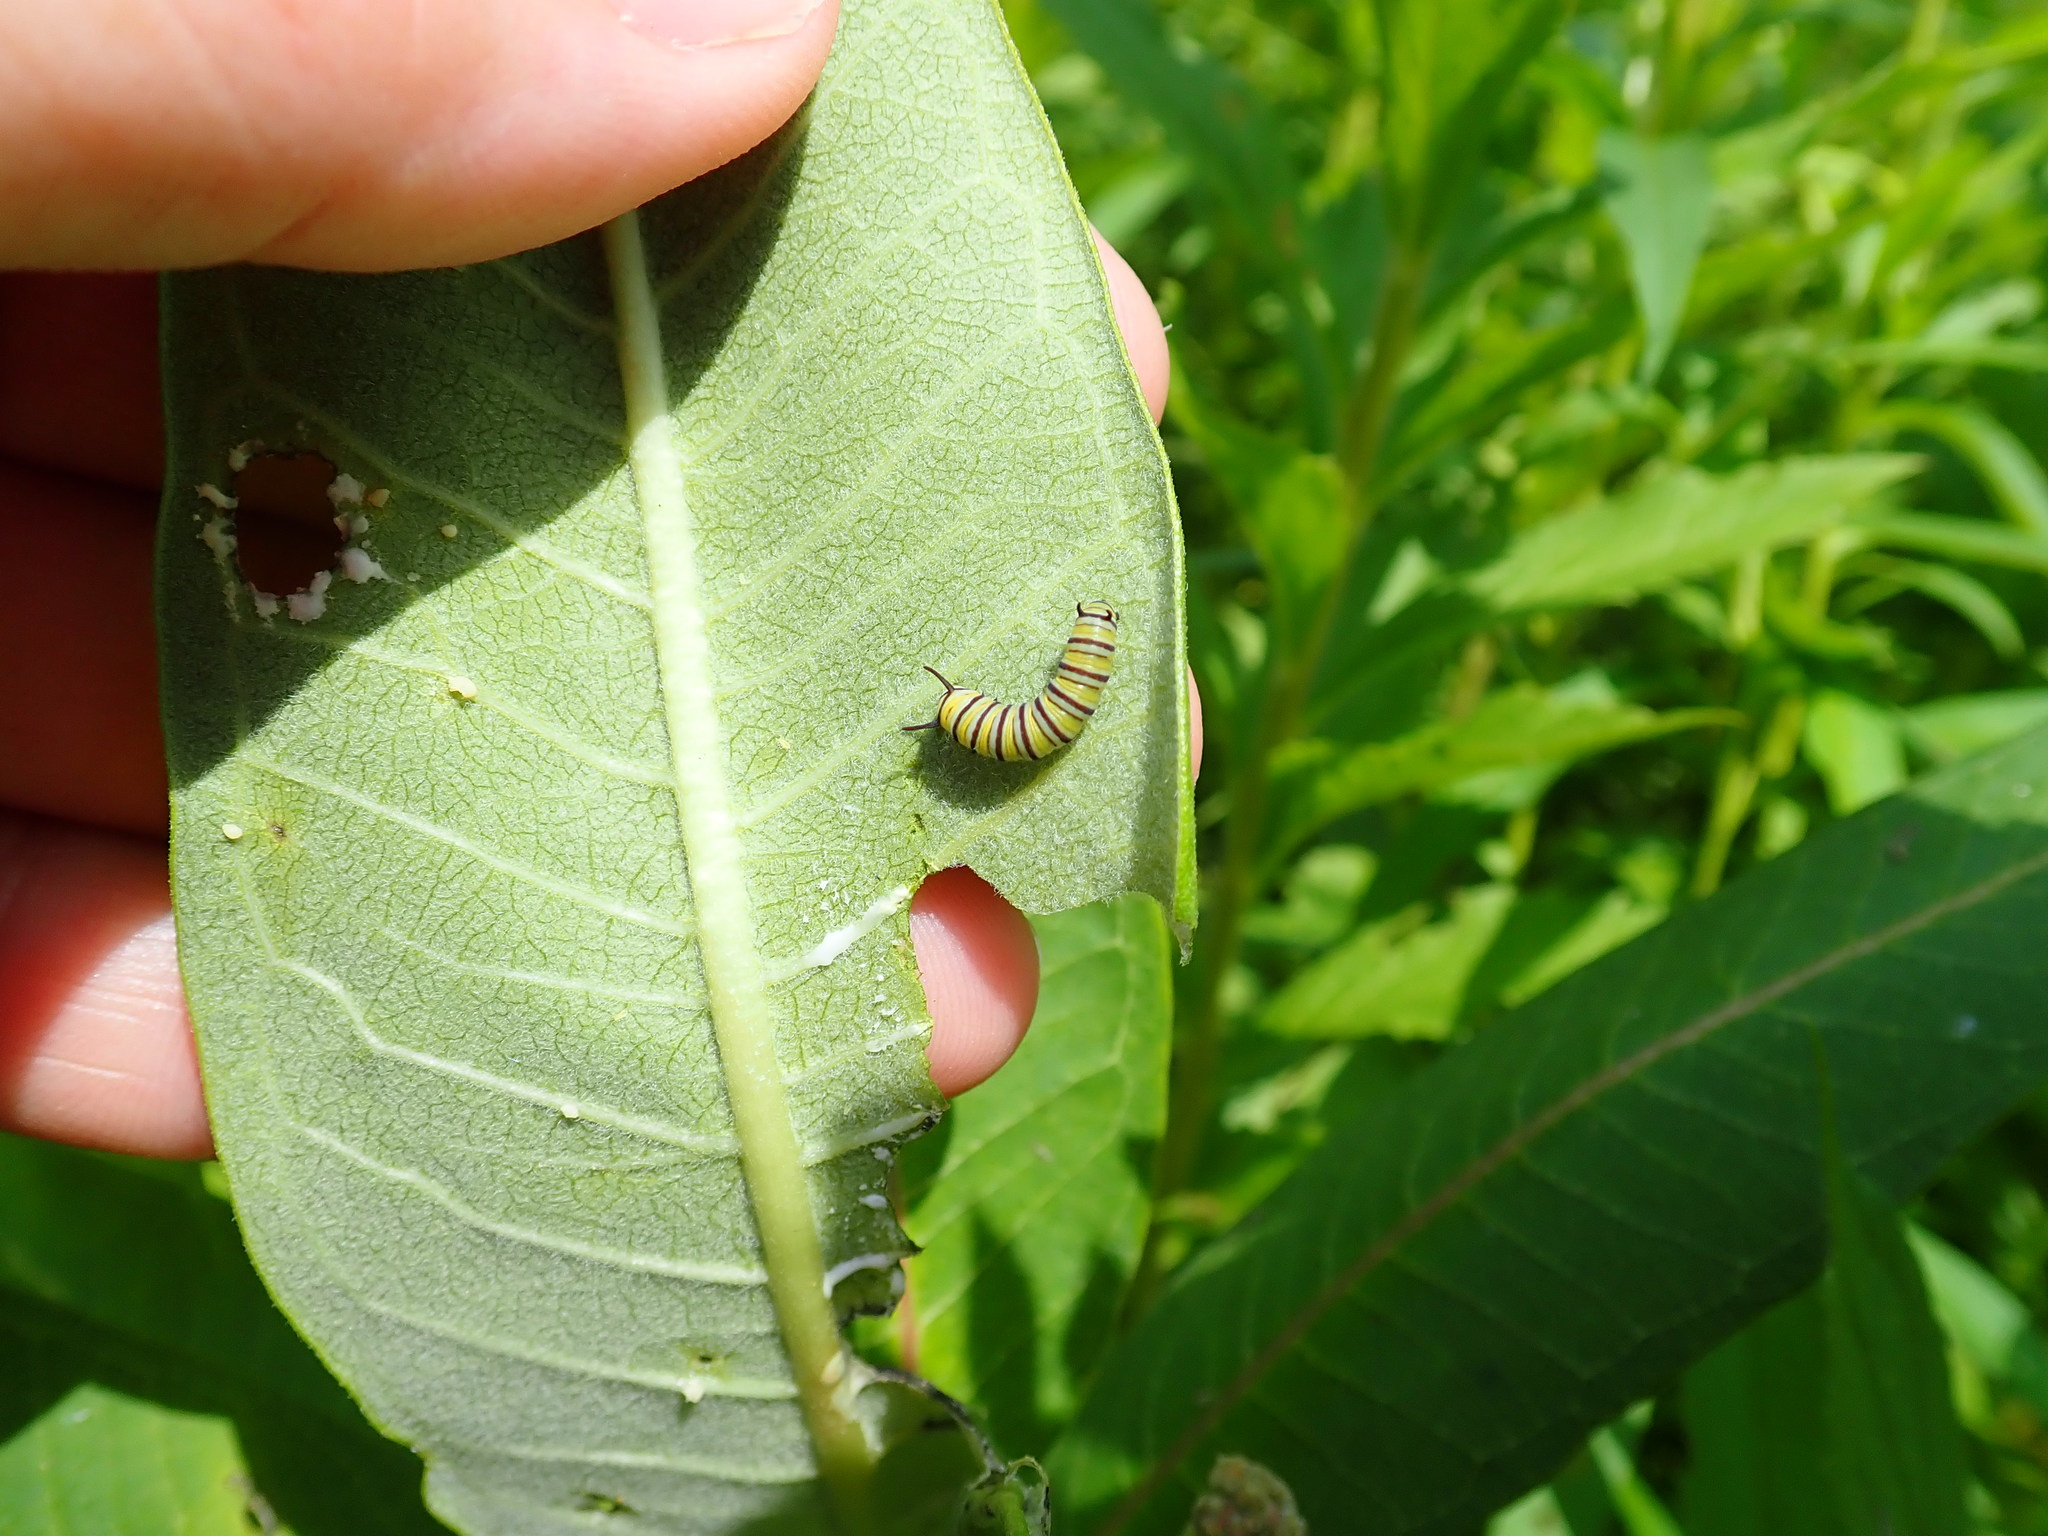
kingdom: Animalia
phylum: Arthropoda
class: Insecta
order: Lepidoptera
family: Nymphalidae
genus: Danaus
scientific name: Danaus plexippus
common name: Monarch
